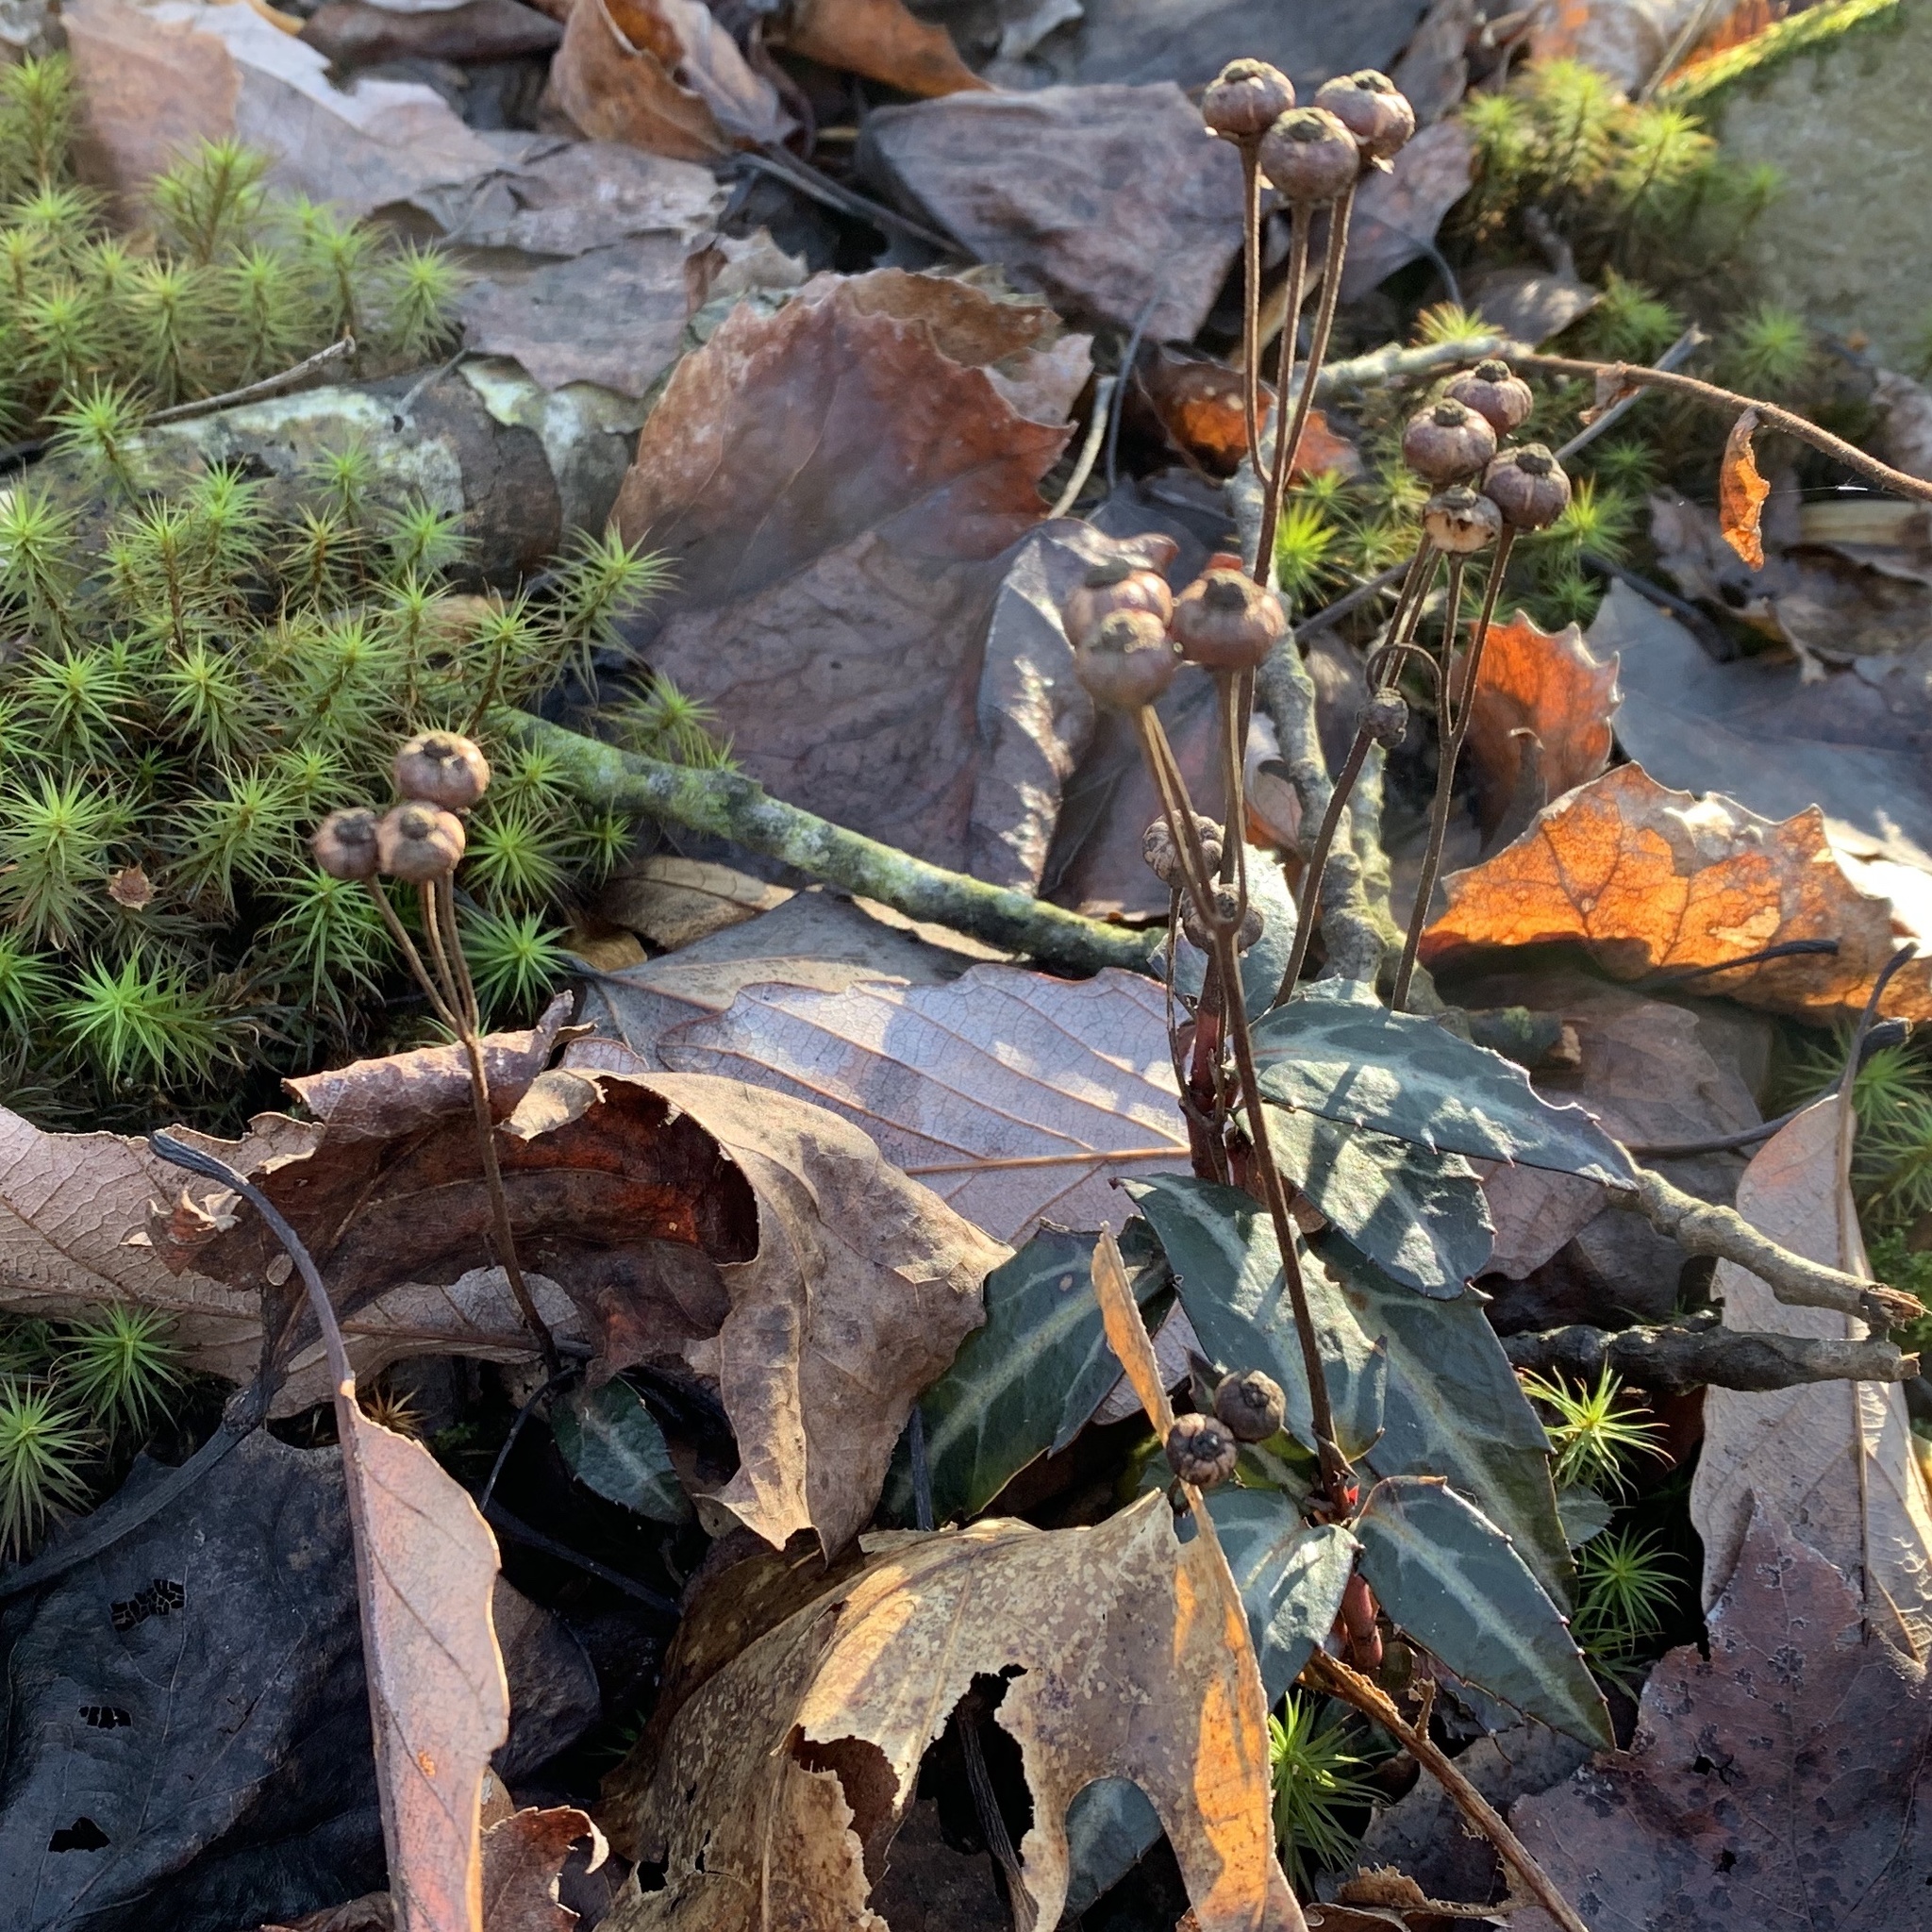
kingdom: Plantae
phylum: Tracheophyta
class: Magnoliopsida
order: Ericales
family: Ericaceae
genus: Chimaphila
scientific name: Chimaphila maculata
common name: Spotted pipsissewa
